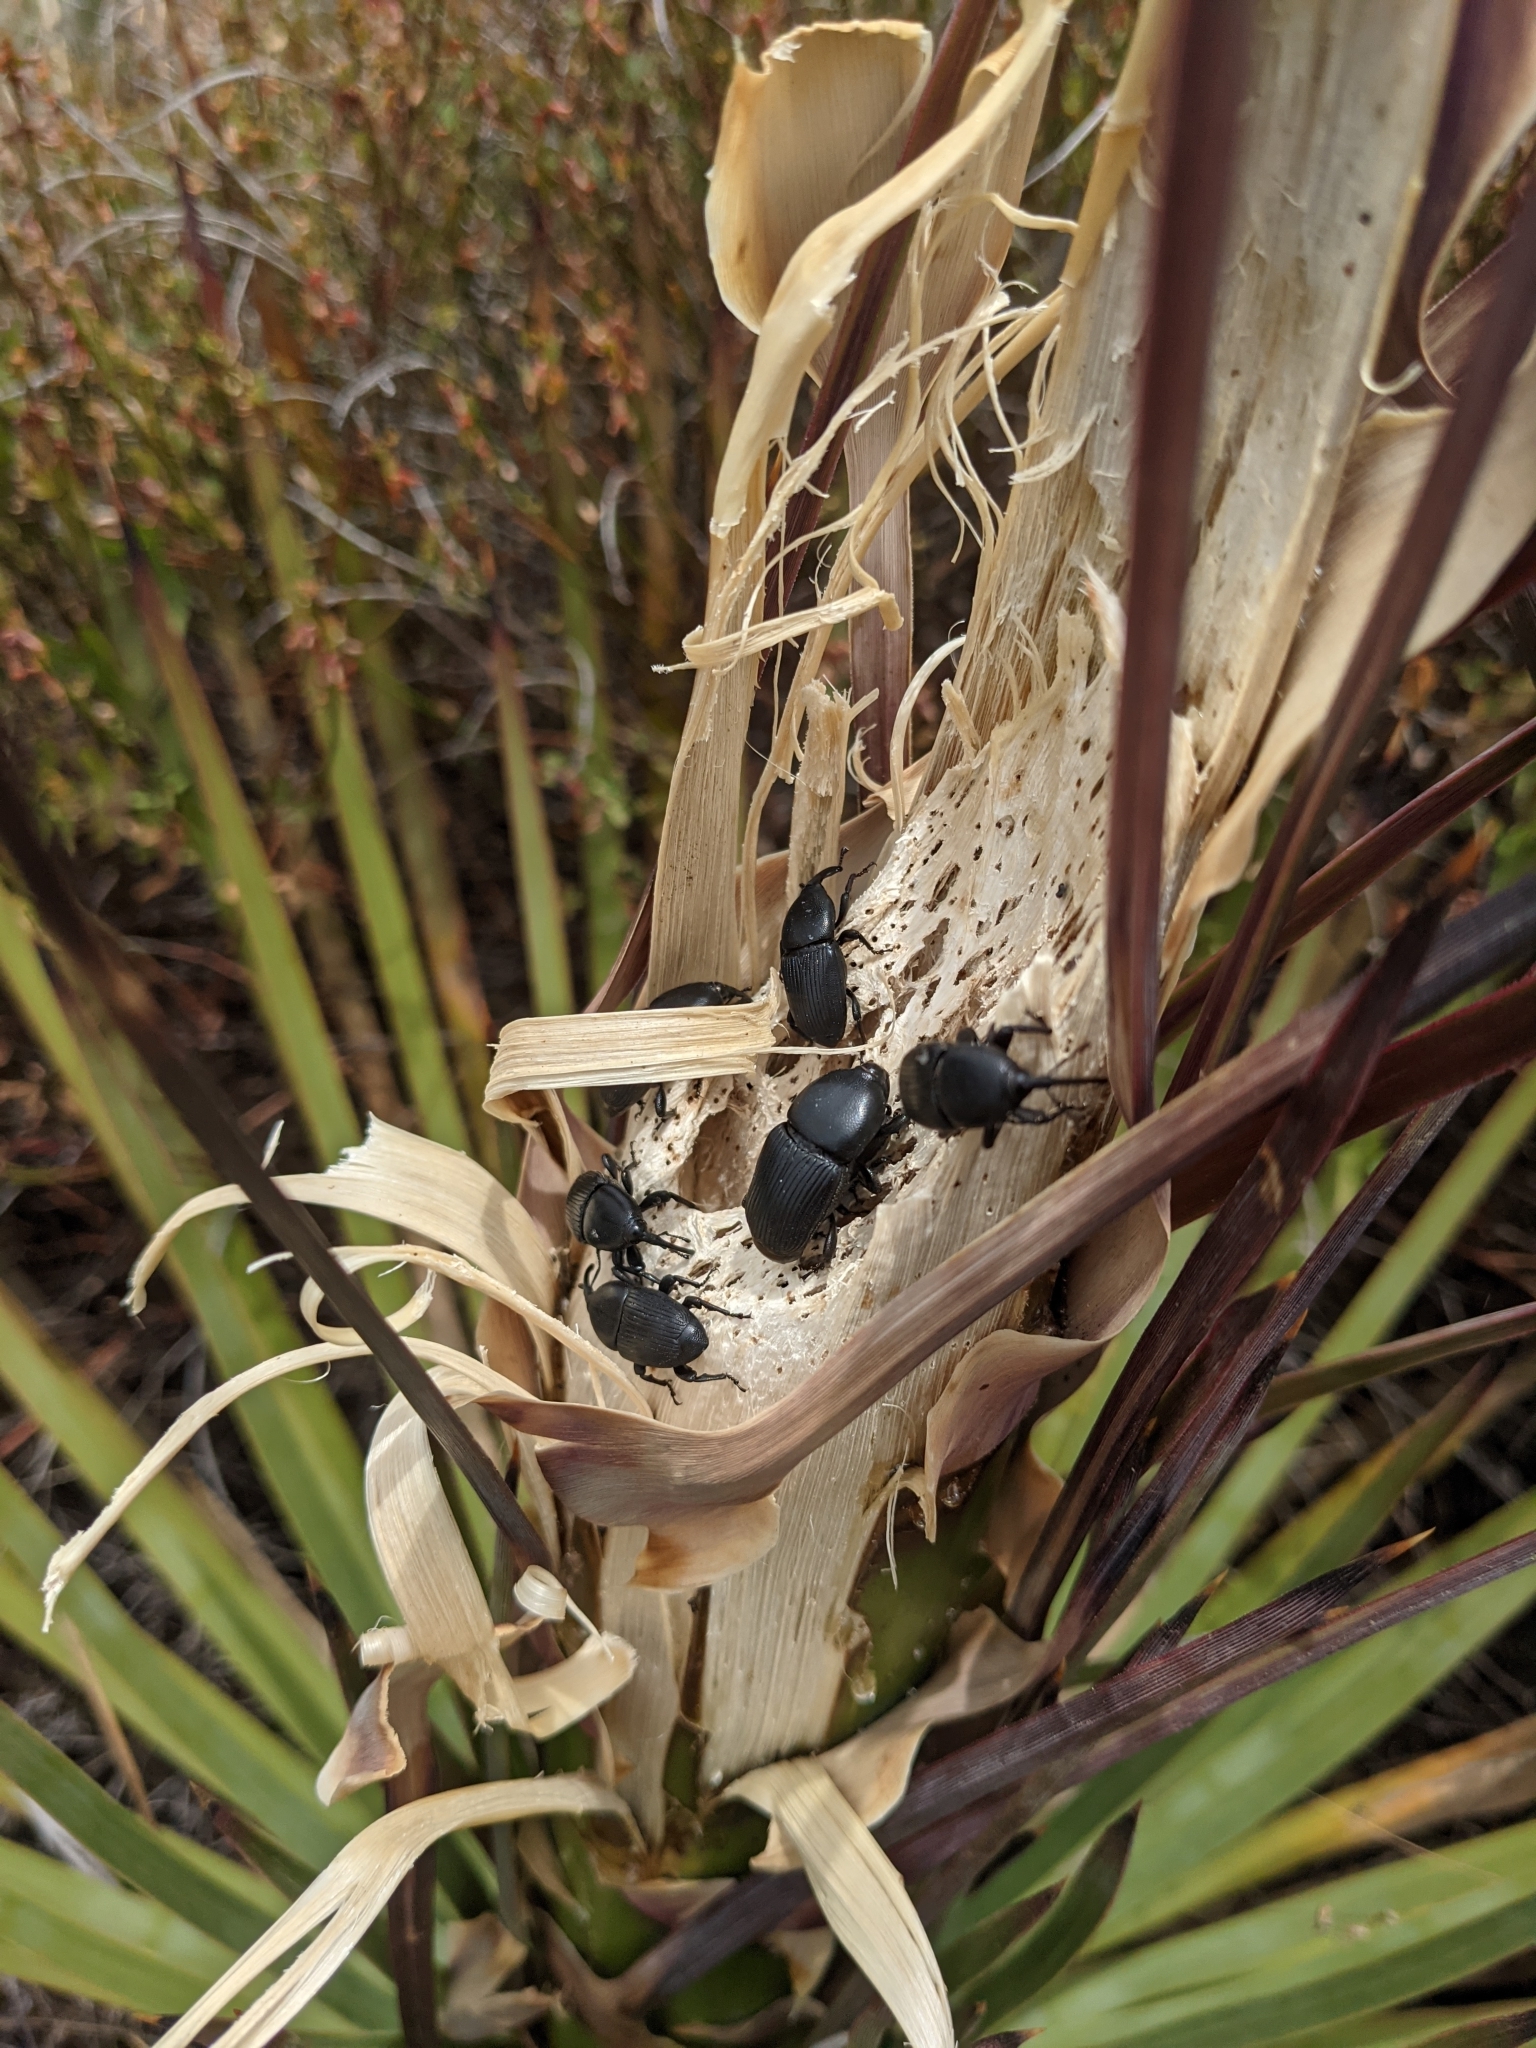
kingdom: Animalia
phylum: Arthropoda
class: Insecta
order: Coleoptera
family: Dryophthoridae
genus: Scyphophorus
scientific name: Scyphophorus yuccae
